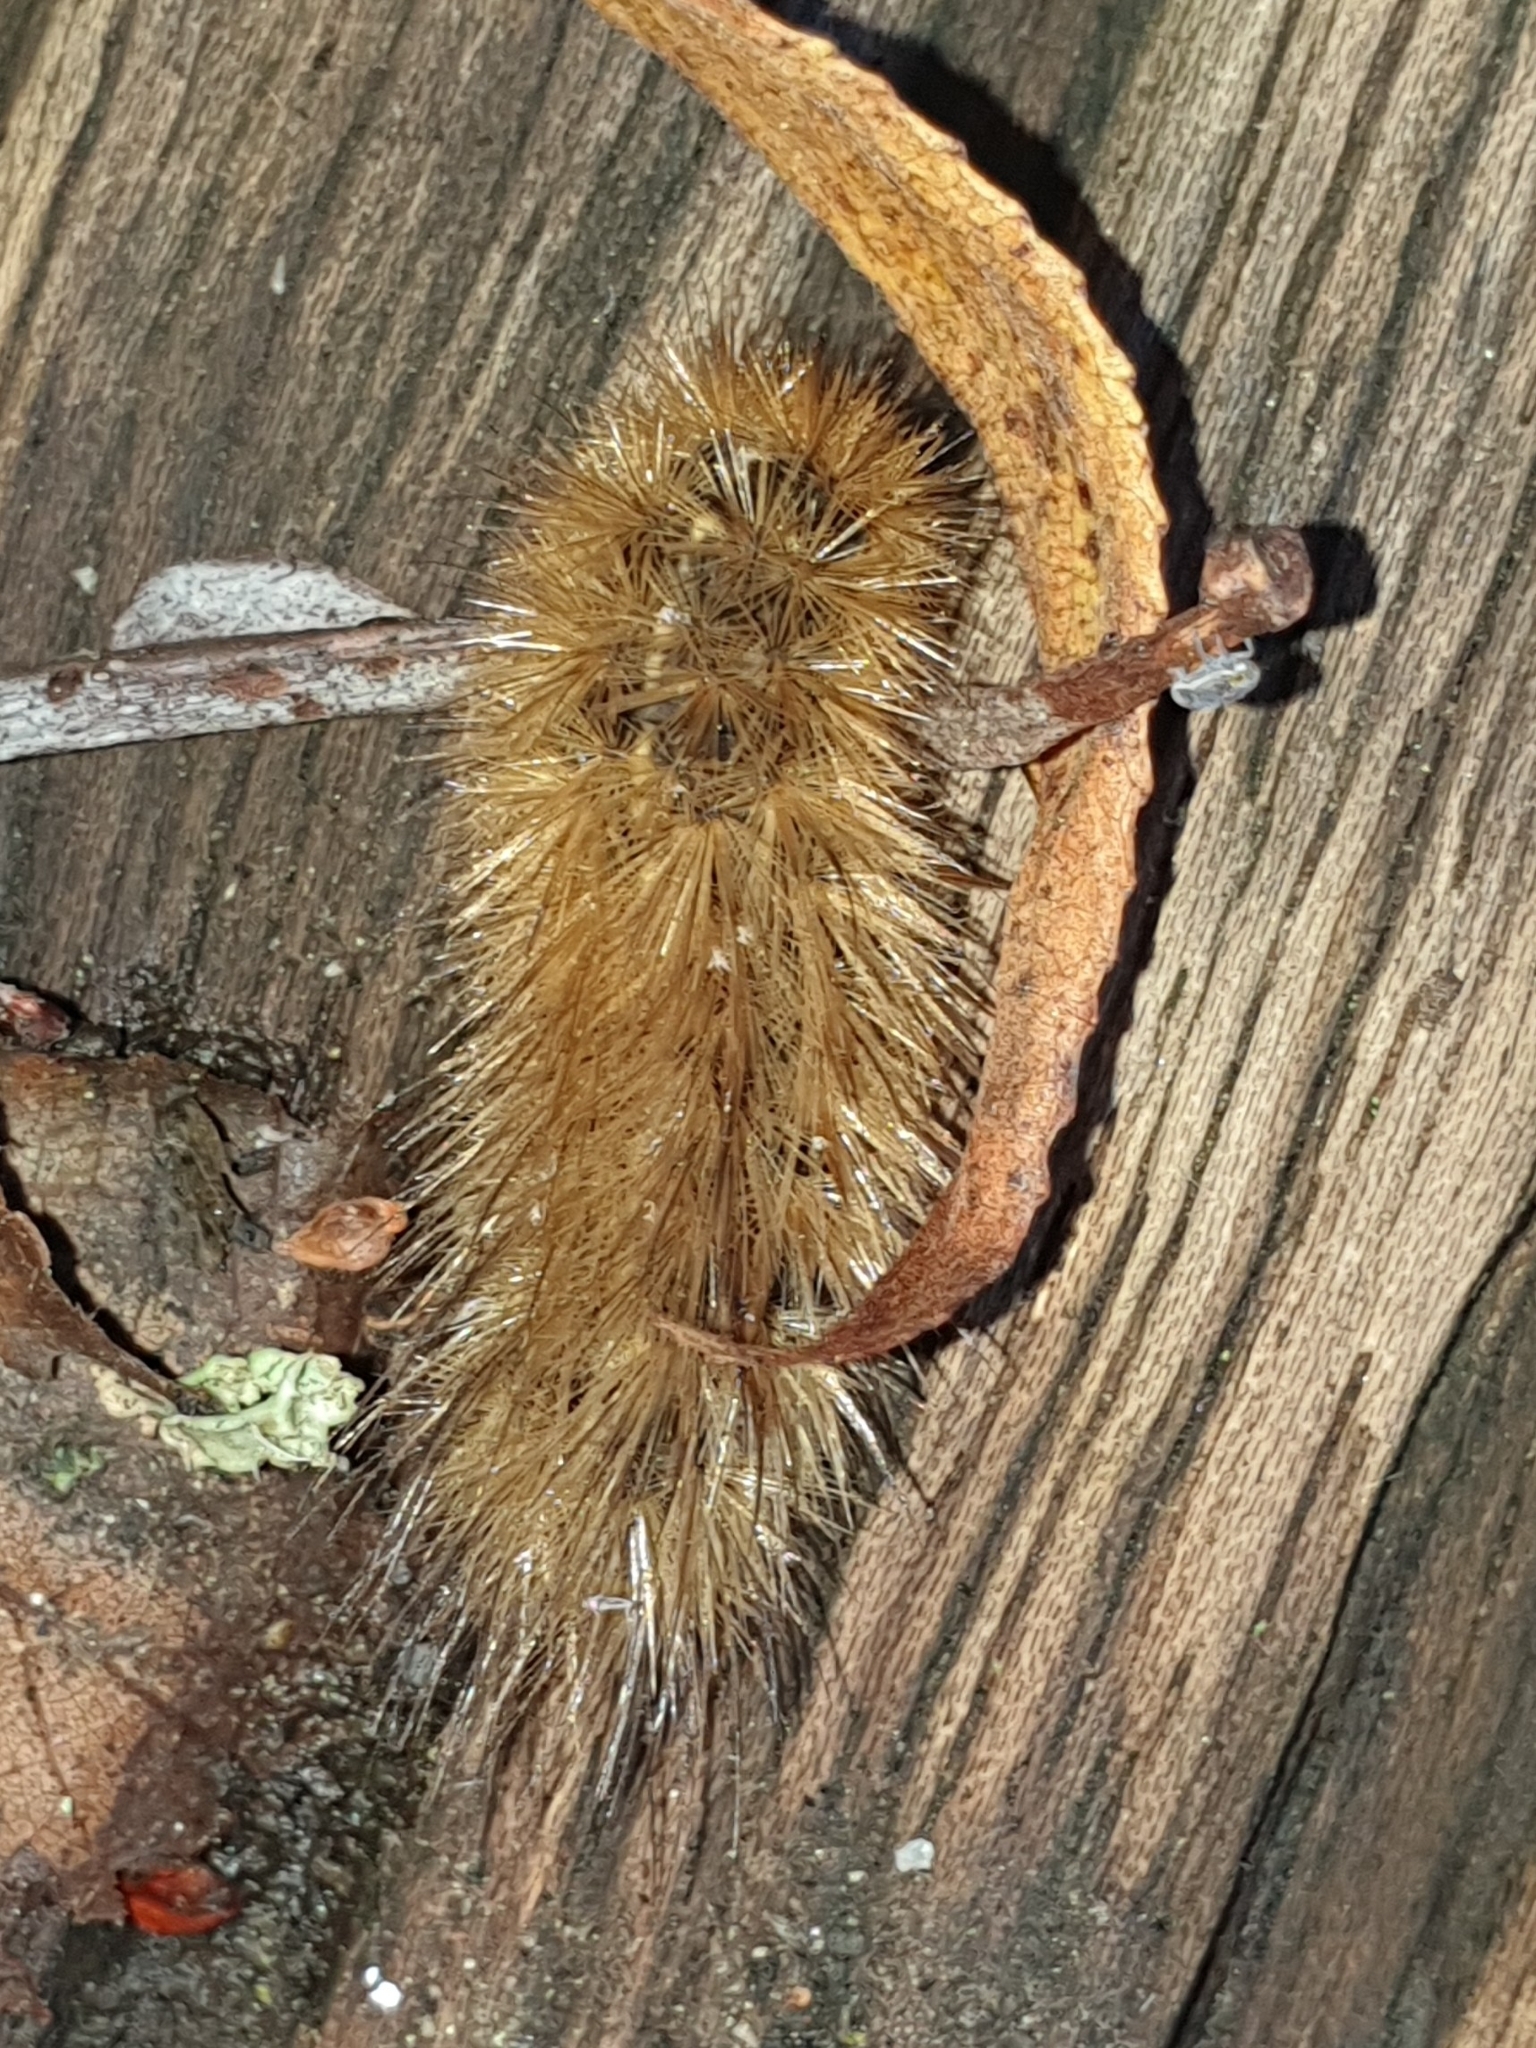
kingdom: Animalia
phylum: Arthropoda
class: Insecta
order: Lepidoptera
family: Erebidae
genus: Phragmatobia
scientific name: Phragmatobia fuliginosa
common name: Ruby tiger
